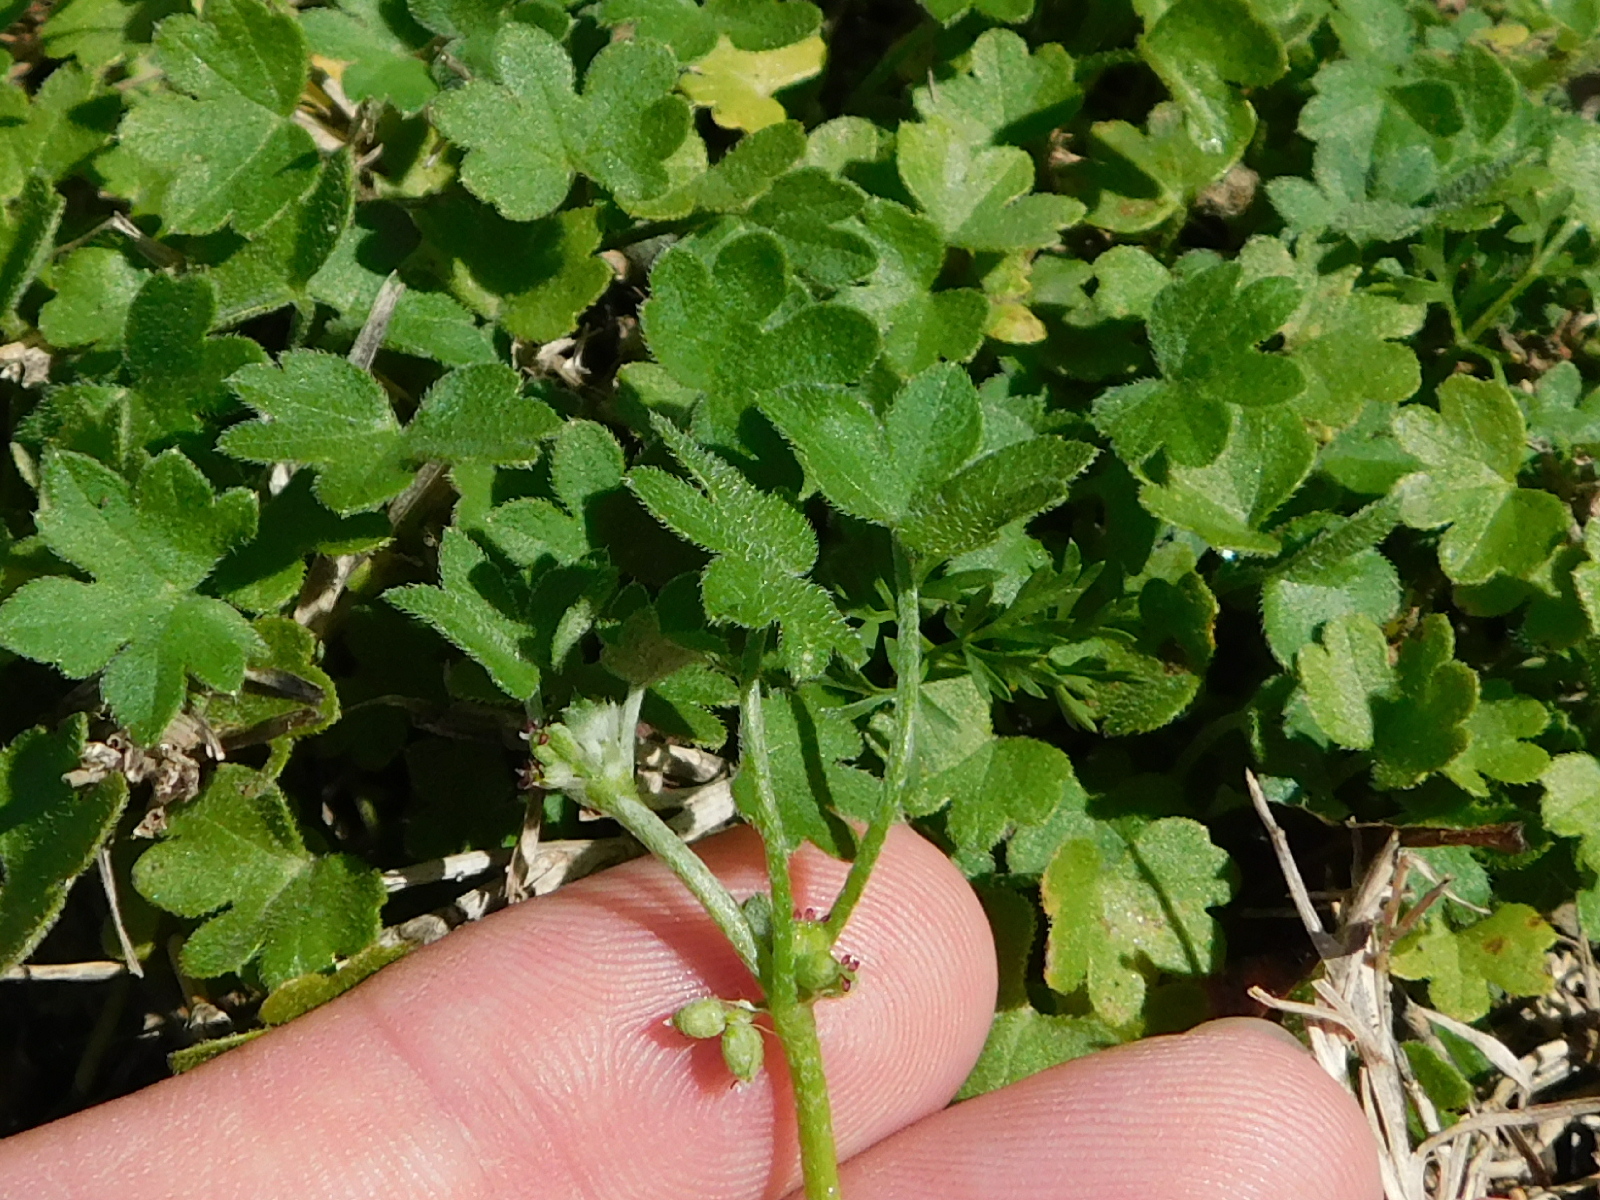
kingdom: Plantae
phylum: Tracheophyta
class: Magnoliopsida
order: Apiales
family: Apiaceae
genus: Bowlesia
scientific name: Bowlesia incana
